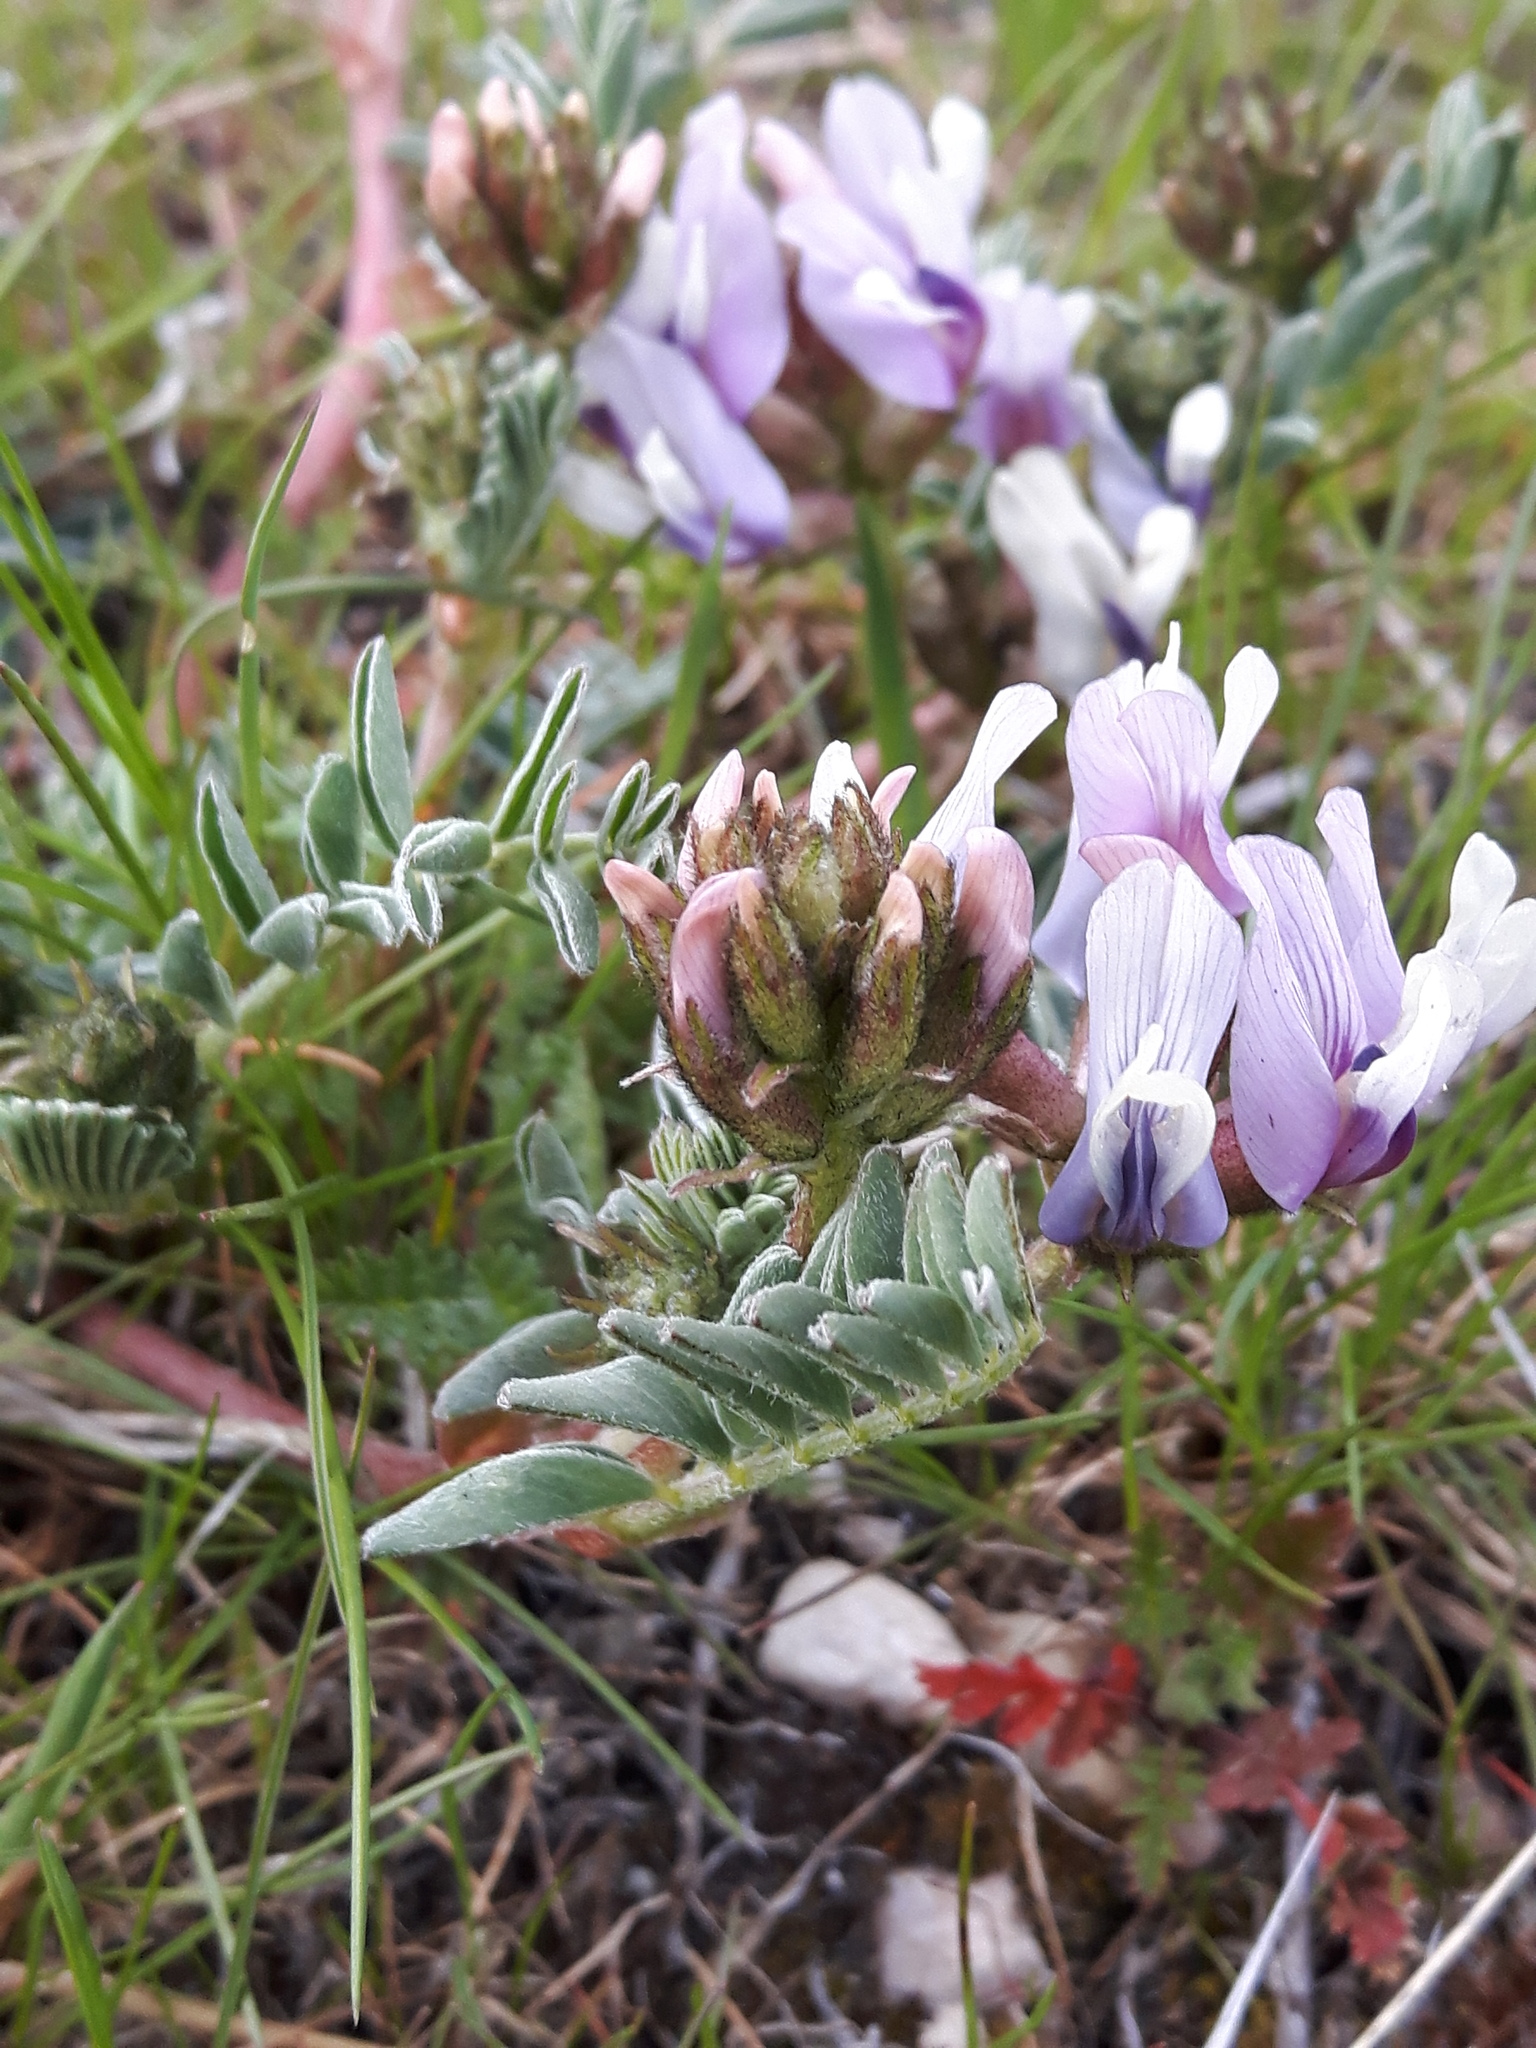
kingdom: Plantae
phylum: Tracheophyta
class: Magnoliopsida
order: Fabales
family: Fabaceae
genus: Astragalus
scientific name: Astragalus cibarius
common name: Browse milk-vetch
